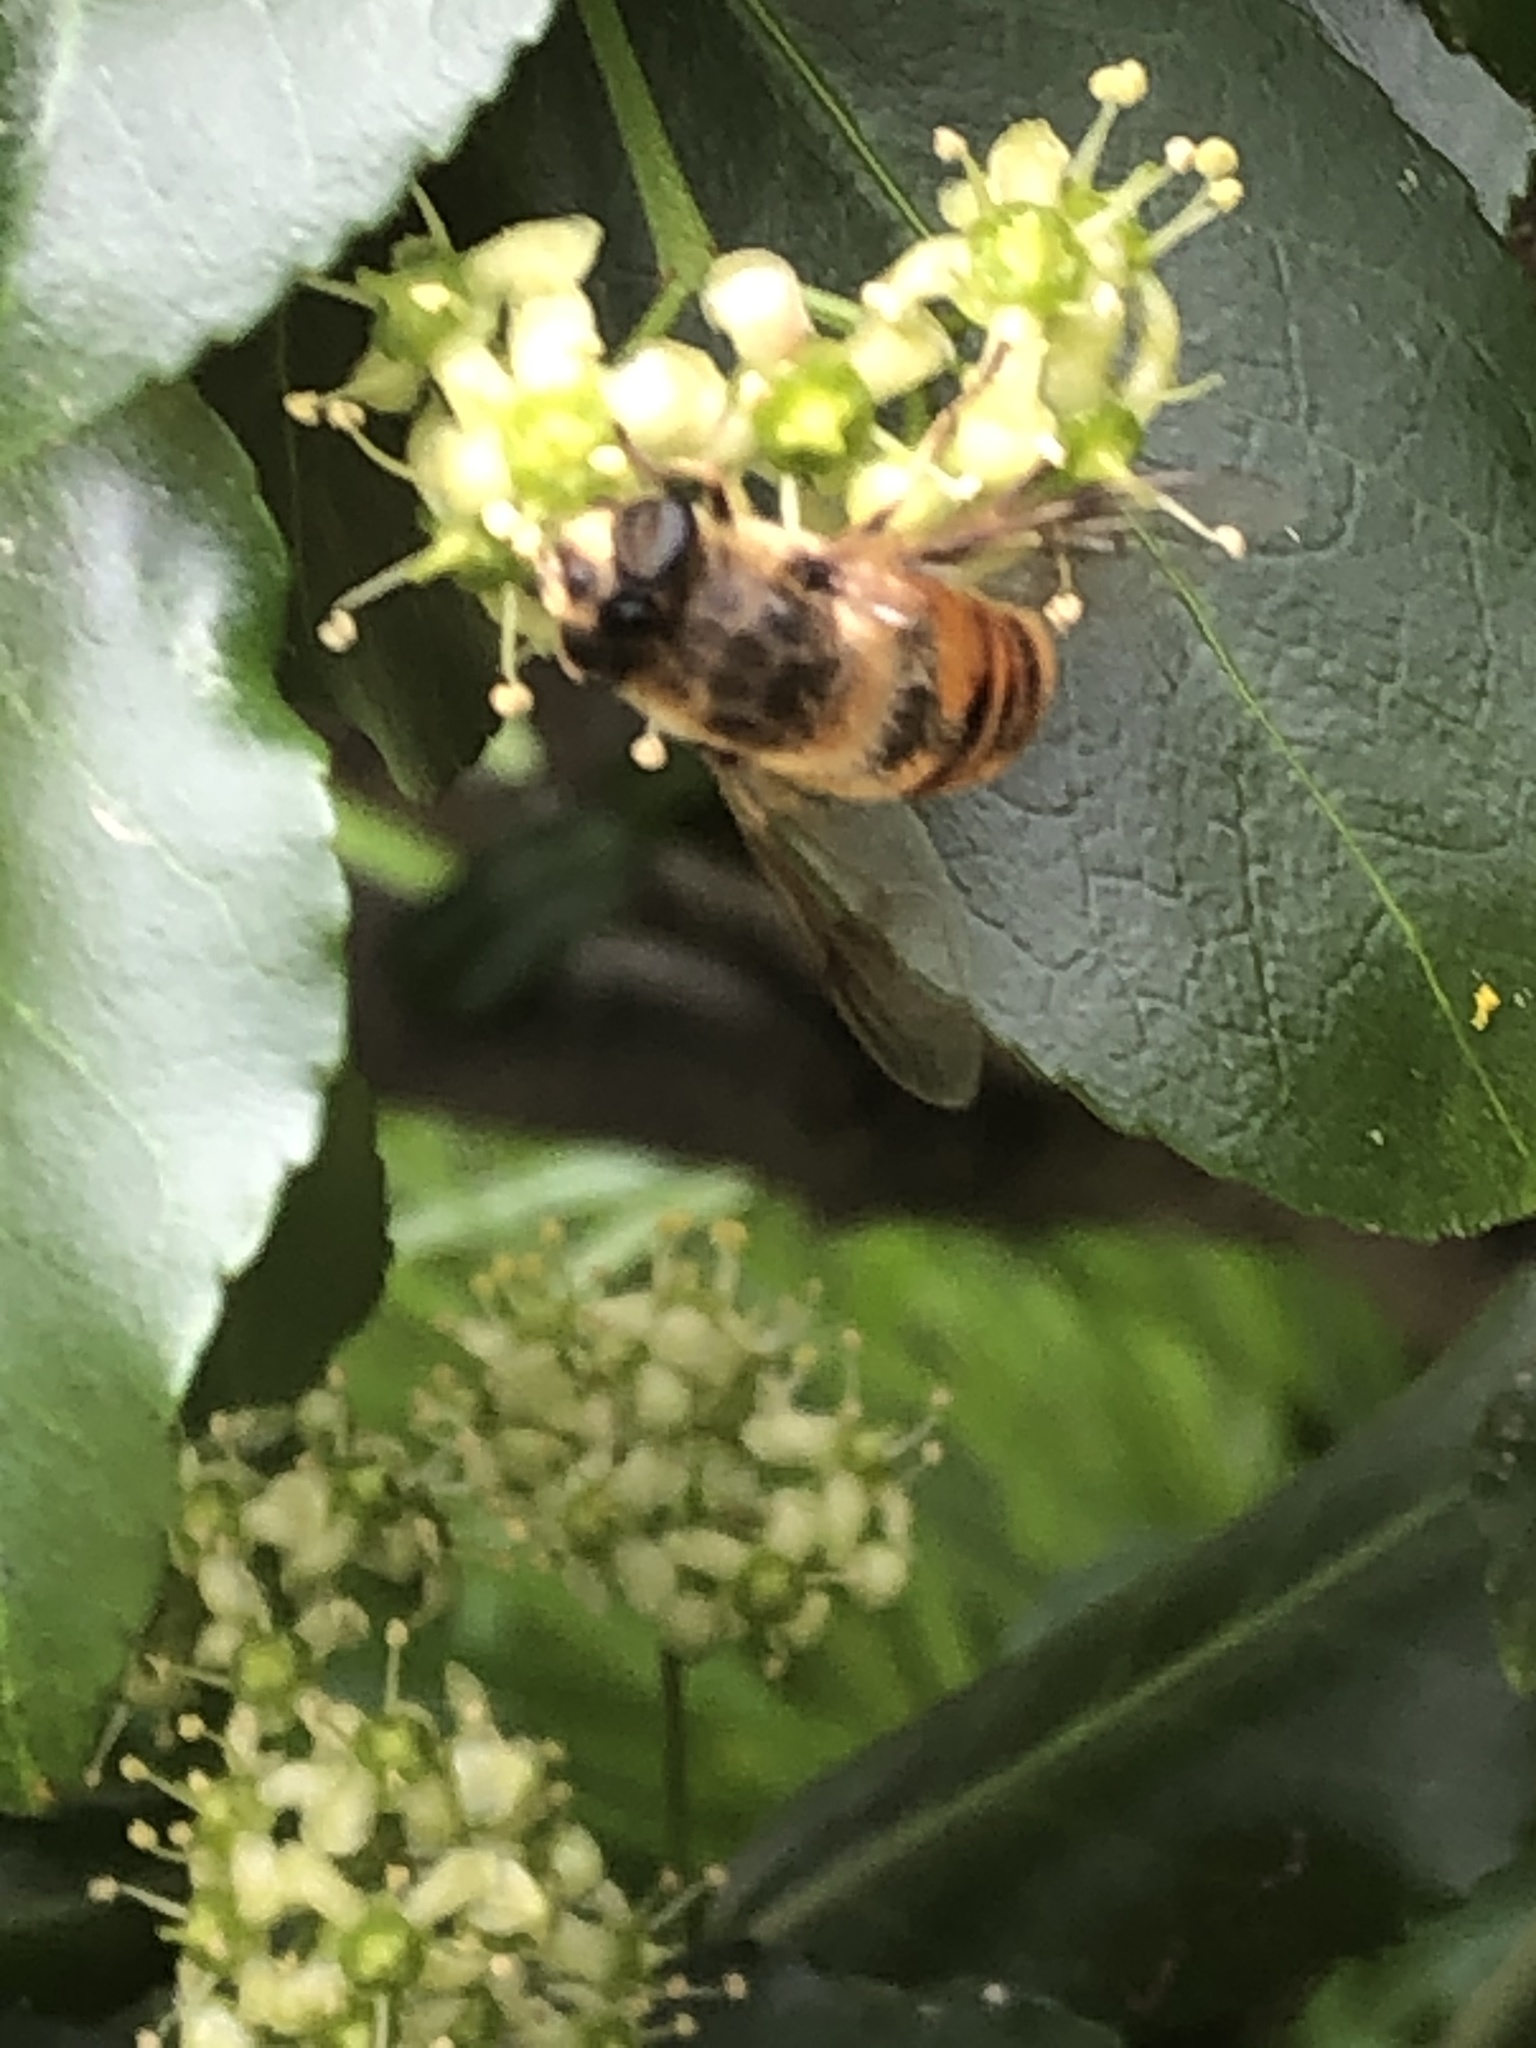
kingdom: Animalia
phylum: Arthropoda
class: Insecta
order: Diptera
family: Syrphidae
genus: Eristalis
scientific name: Eristalis tenax
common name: Drone fly
